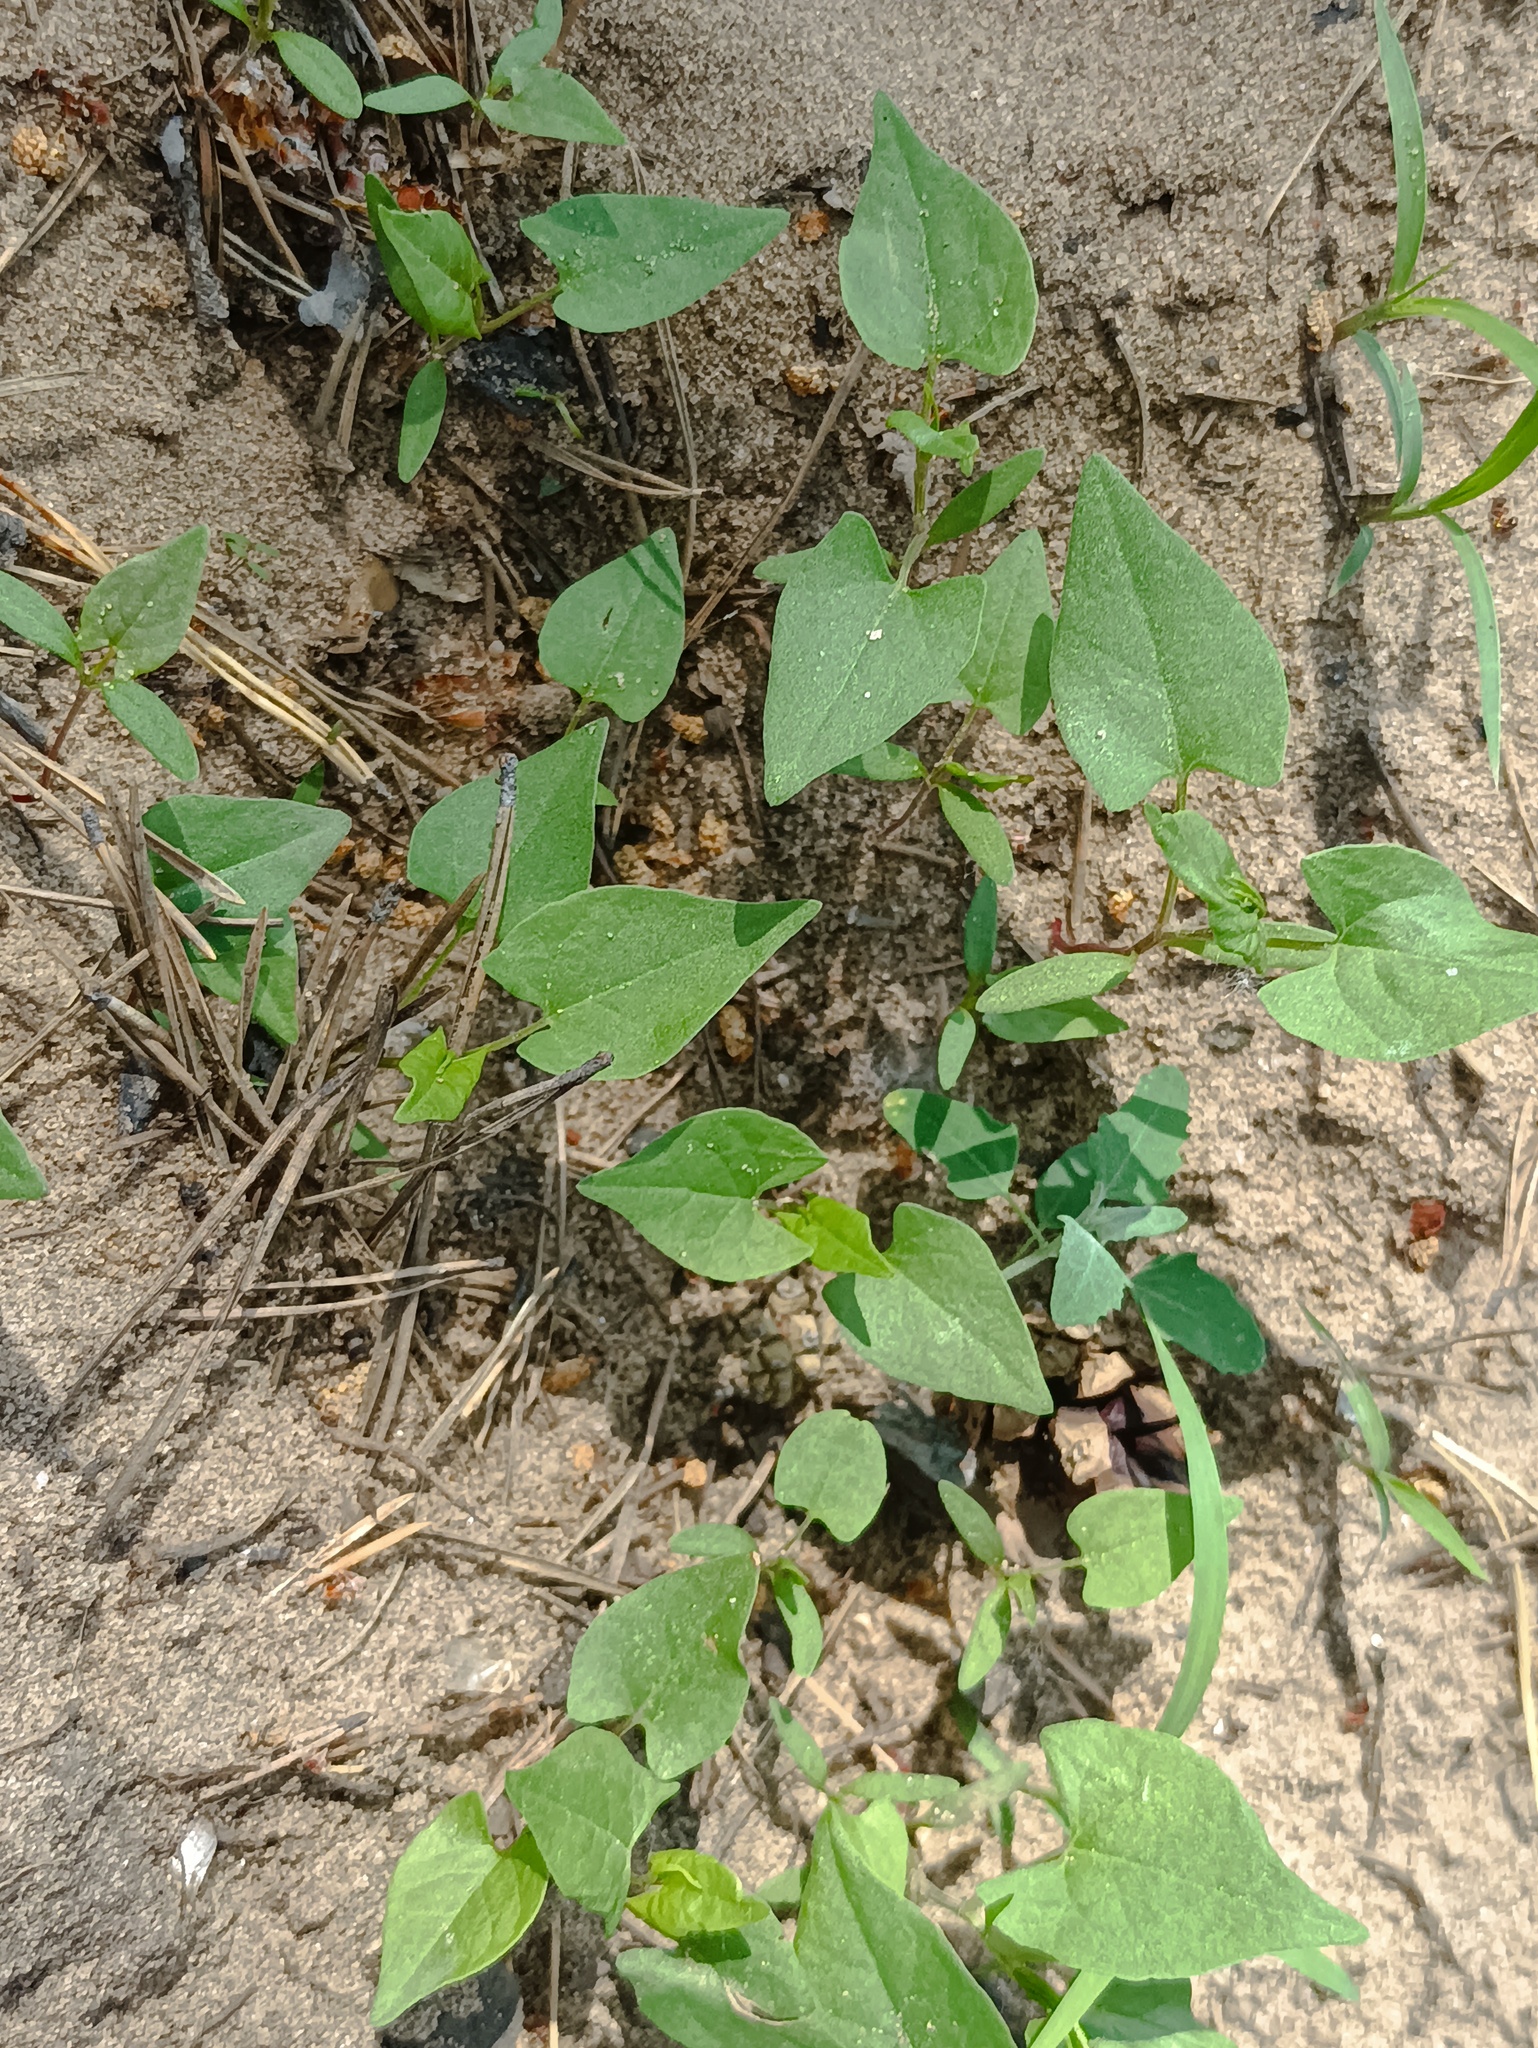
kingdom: Plantae
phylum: Tracheophyta
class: Magnoliopsida
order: Caryophyllales
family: Polygonaceae
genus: Fallopia
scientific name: Fallopia convolvulus
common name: Black bindweed
